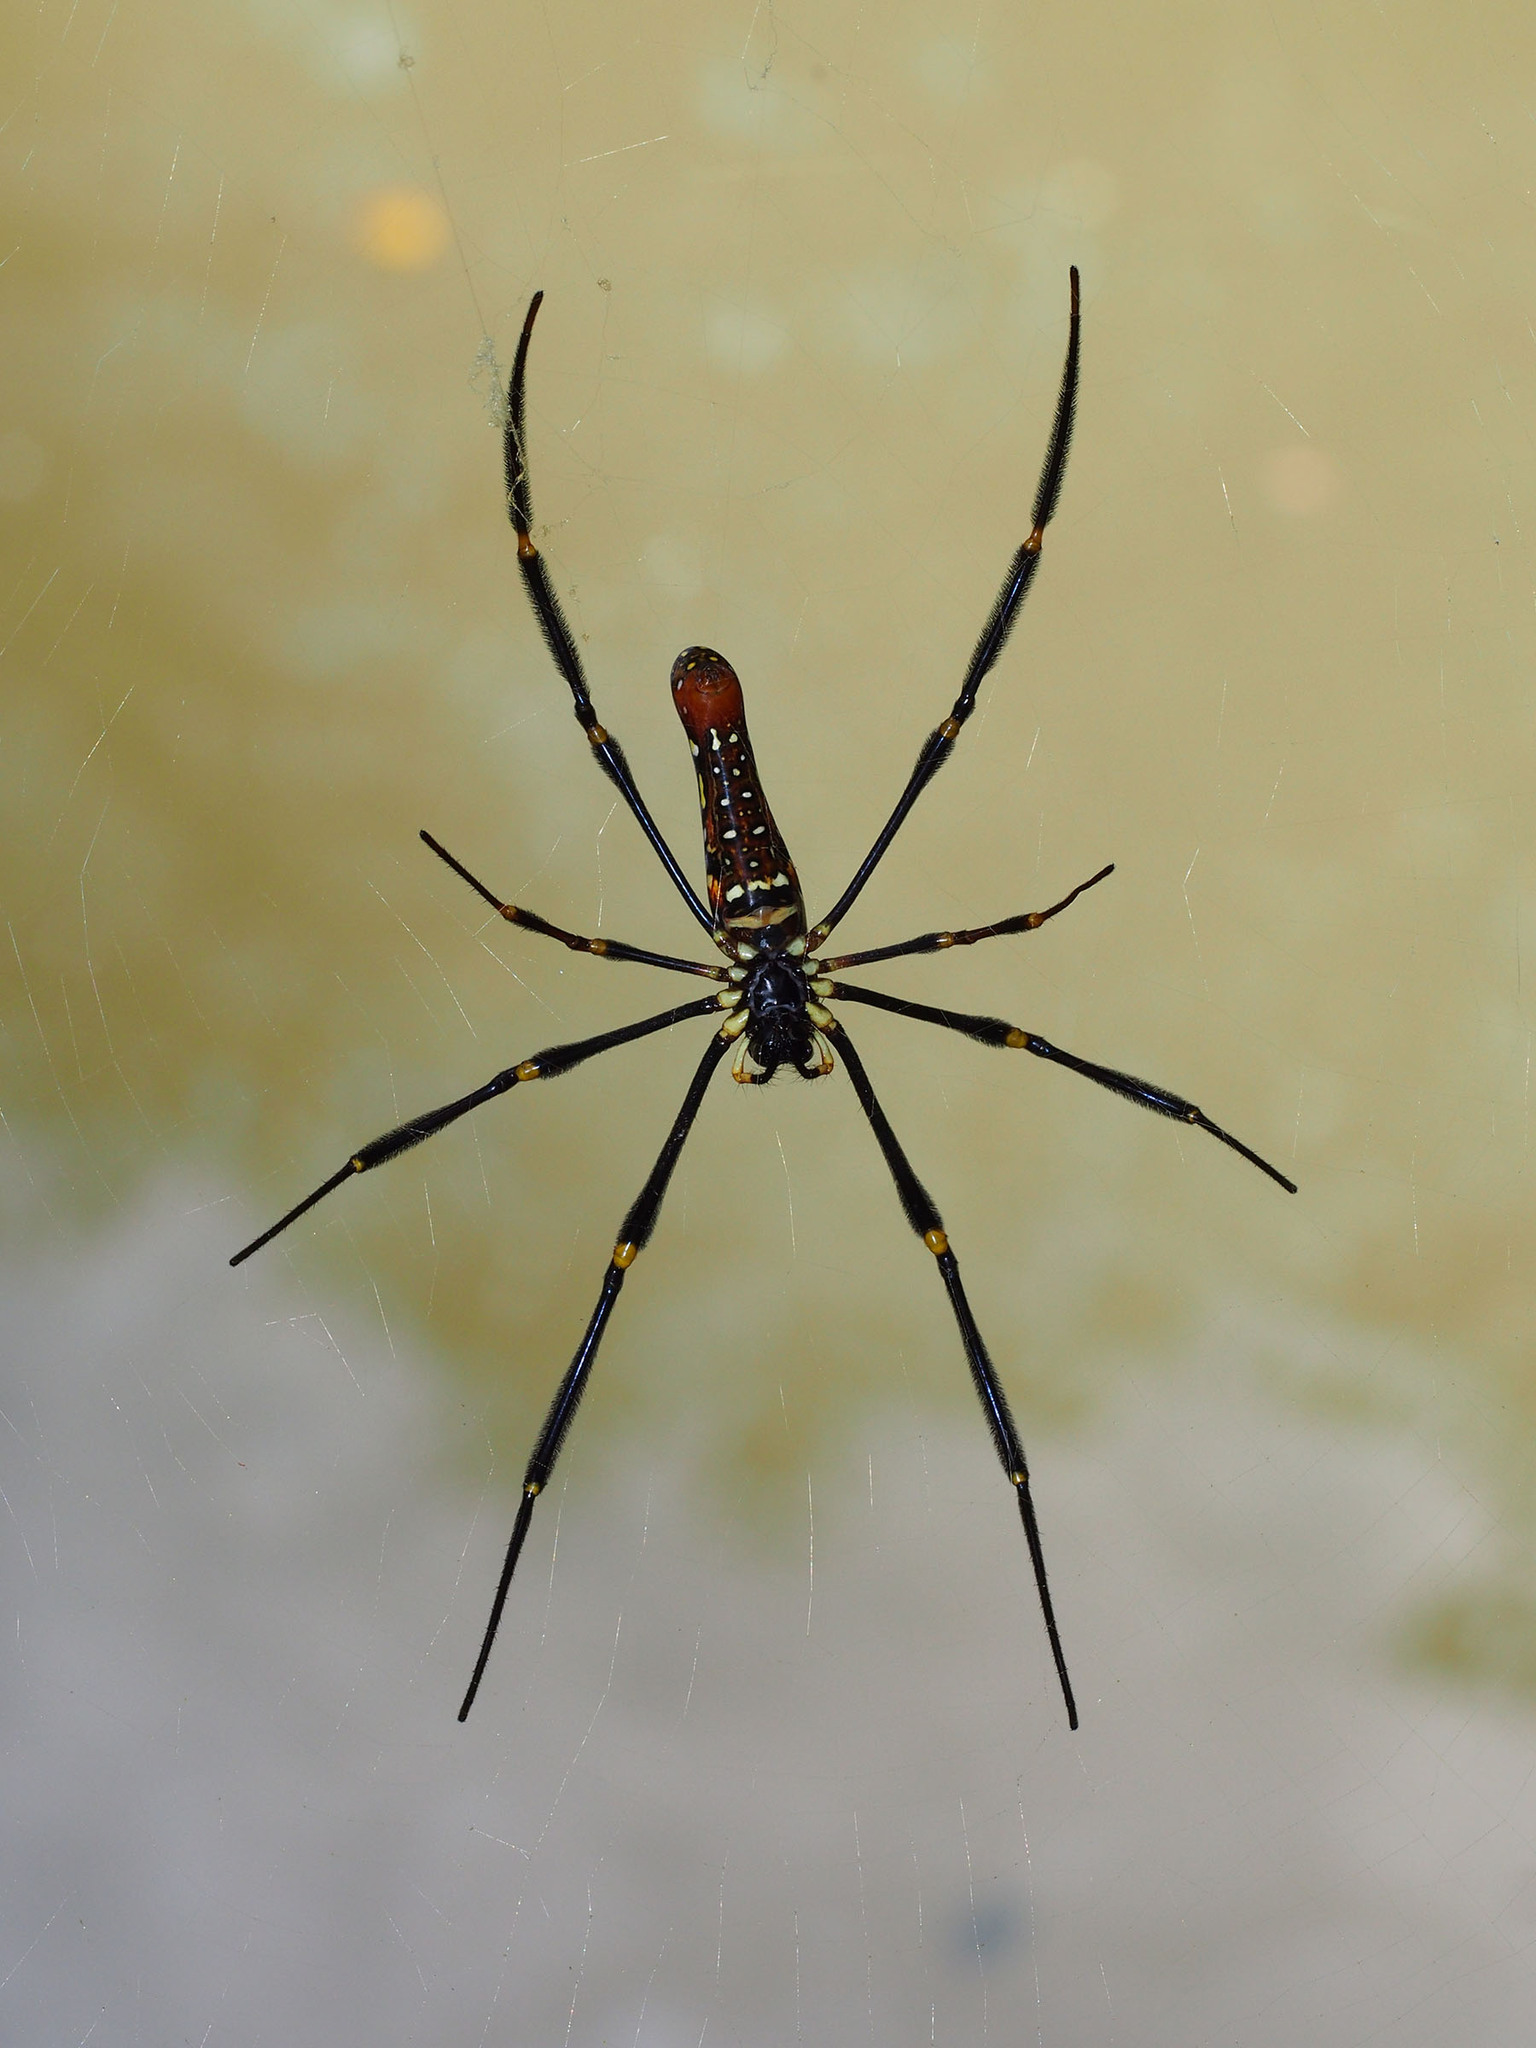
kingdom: Animalia
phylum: Arthropoda
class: Arachnida
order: Araneae
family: Araneidae
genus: Nephila
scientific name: Nephila pilipes
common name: Giant golden orb weaver
